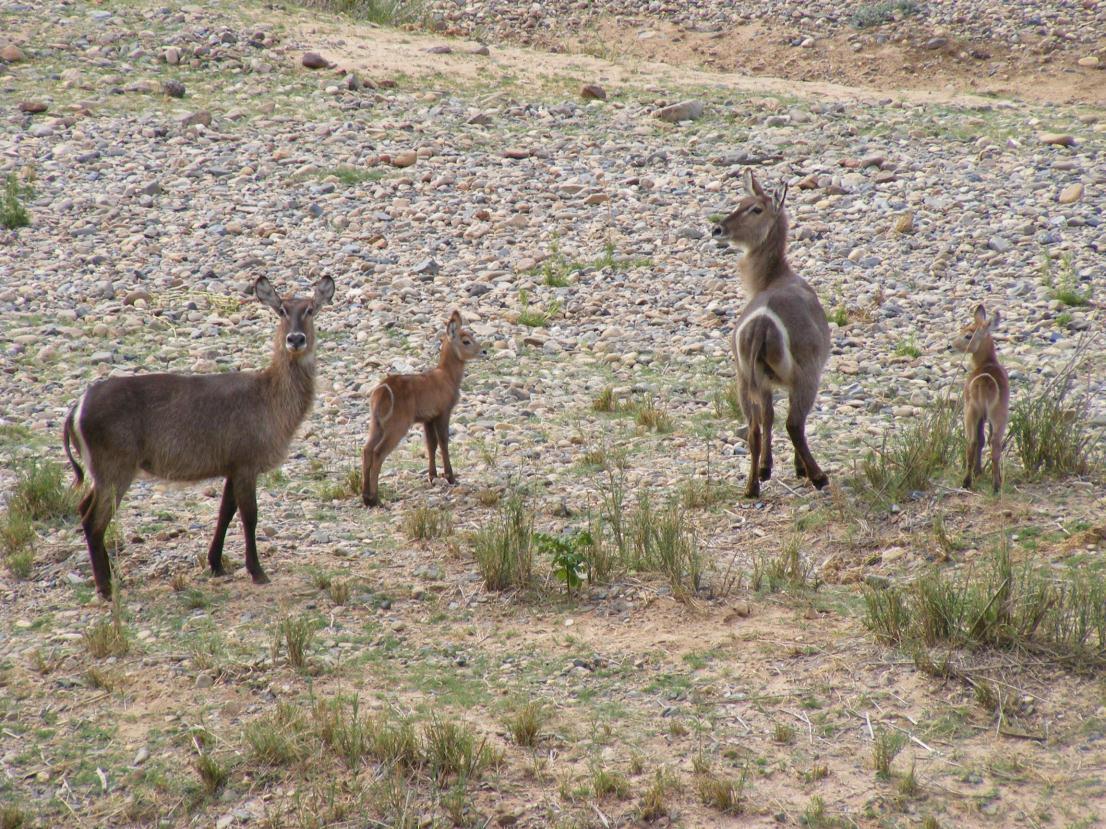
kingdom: Animalia
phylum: Chordata
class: Mammalia
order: Artiodactyla
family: Bovidae
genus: Kobus
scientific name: Kobus ellipsiprymnus
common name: Waterbuck
